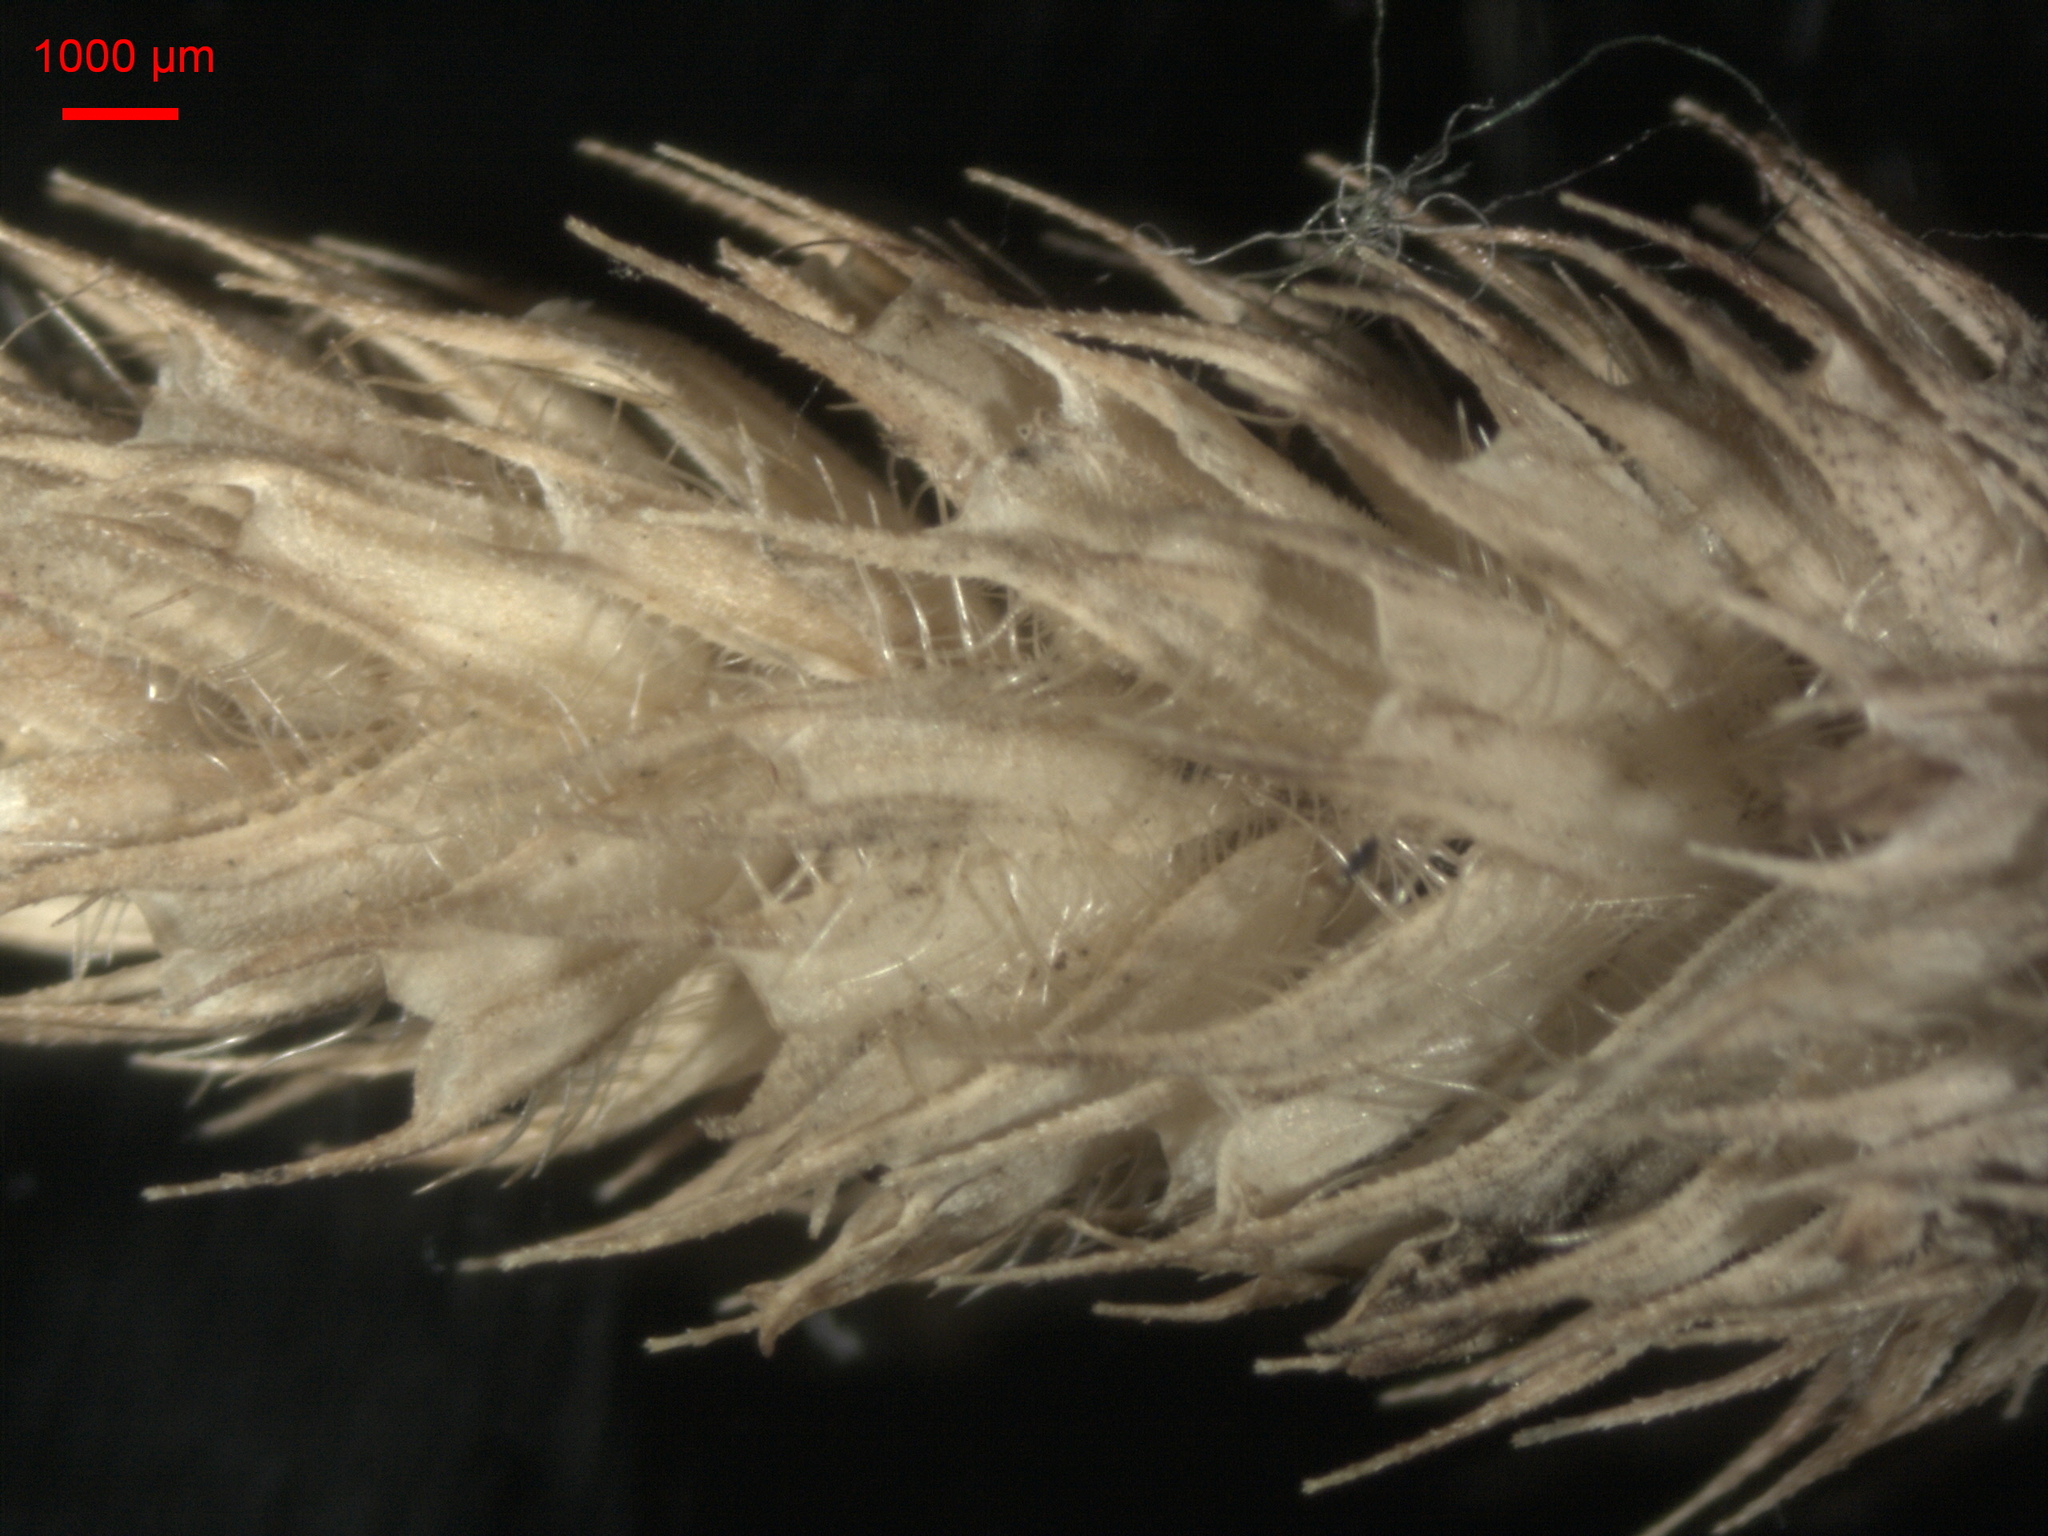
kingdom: Plantae
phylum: Tracheophyta
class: Liliopsida
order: Poales
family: Poaceae
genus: Phleum
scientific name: Phleum pratense
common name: Timothy grass
